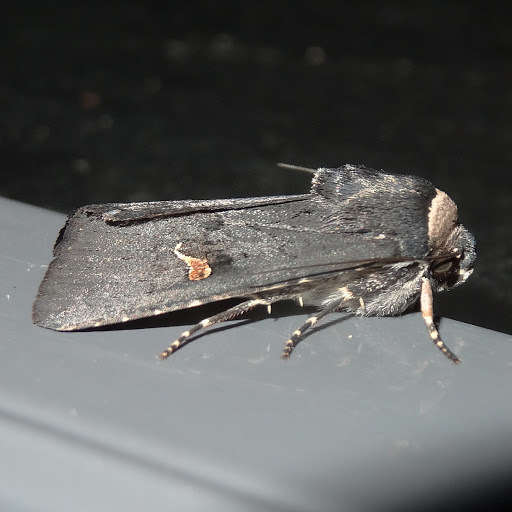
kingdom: Animalia
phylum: Arthropoda
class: Insecta
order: Lepidoptera
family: Noctuidae
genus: Proteuxoa
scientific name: Proteuxoa cinereicollis
